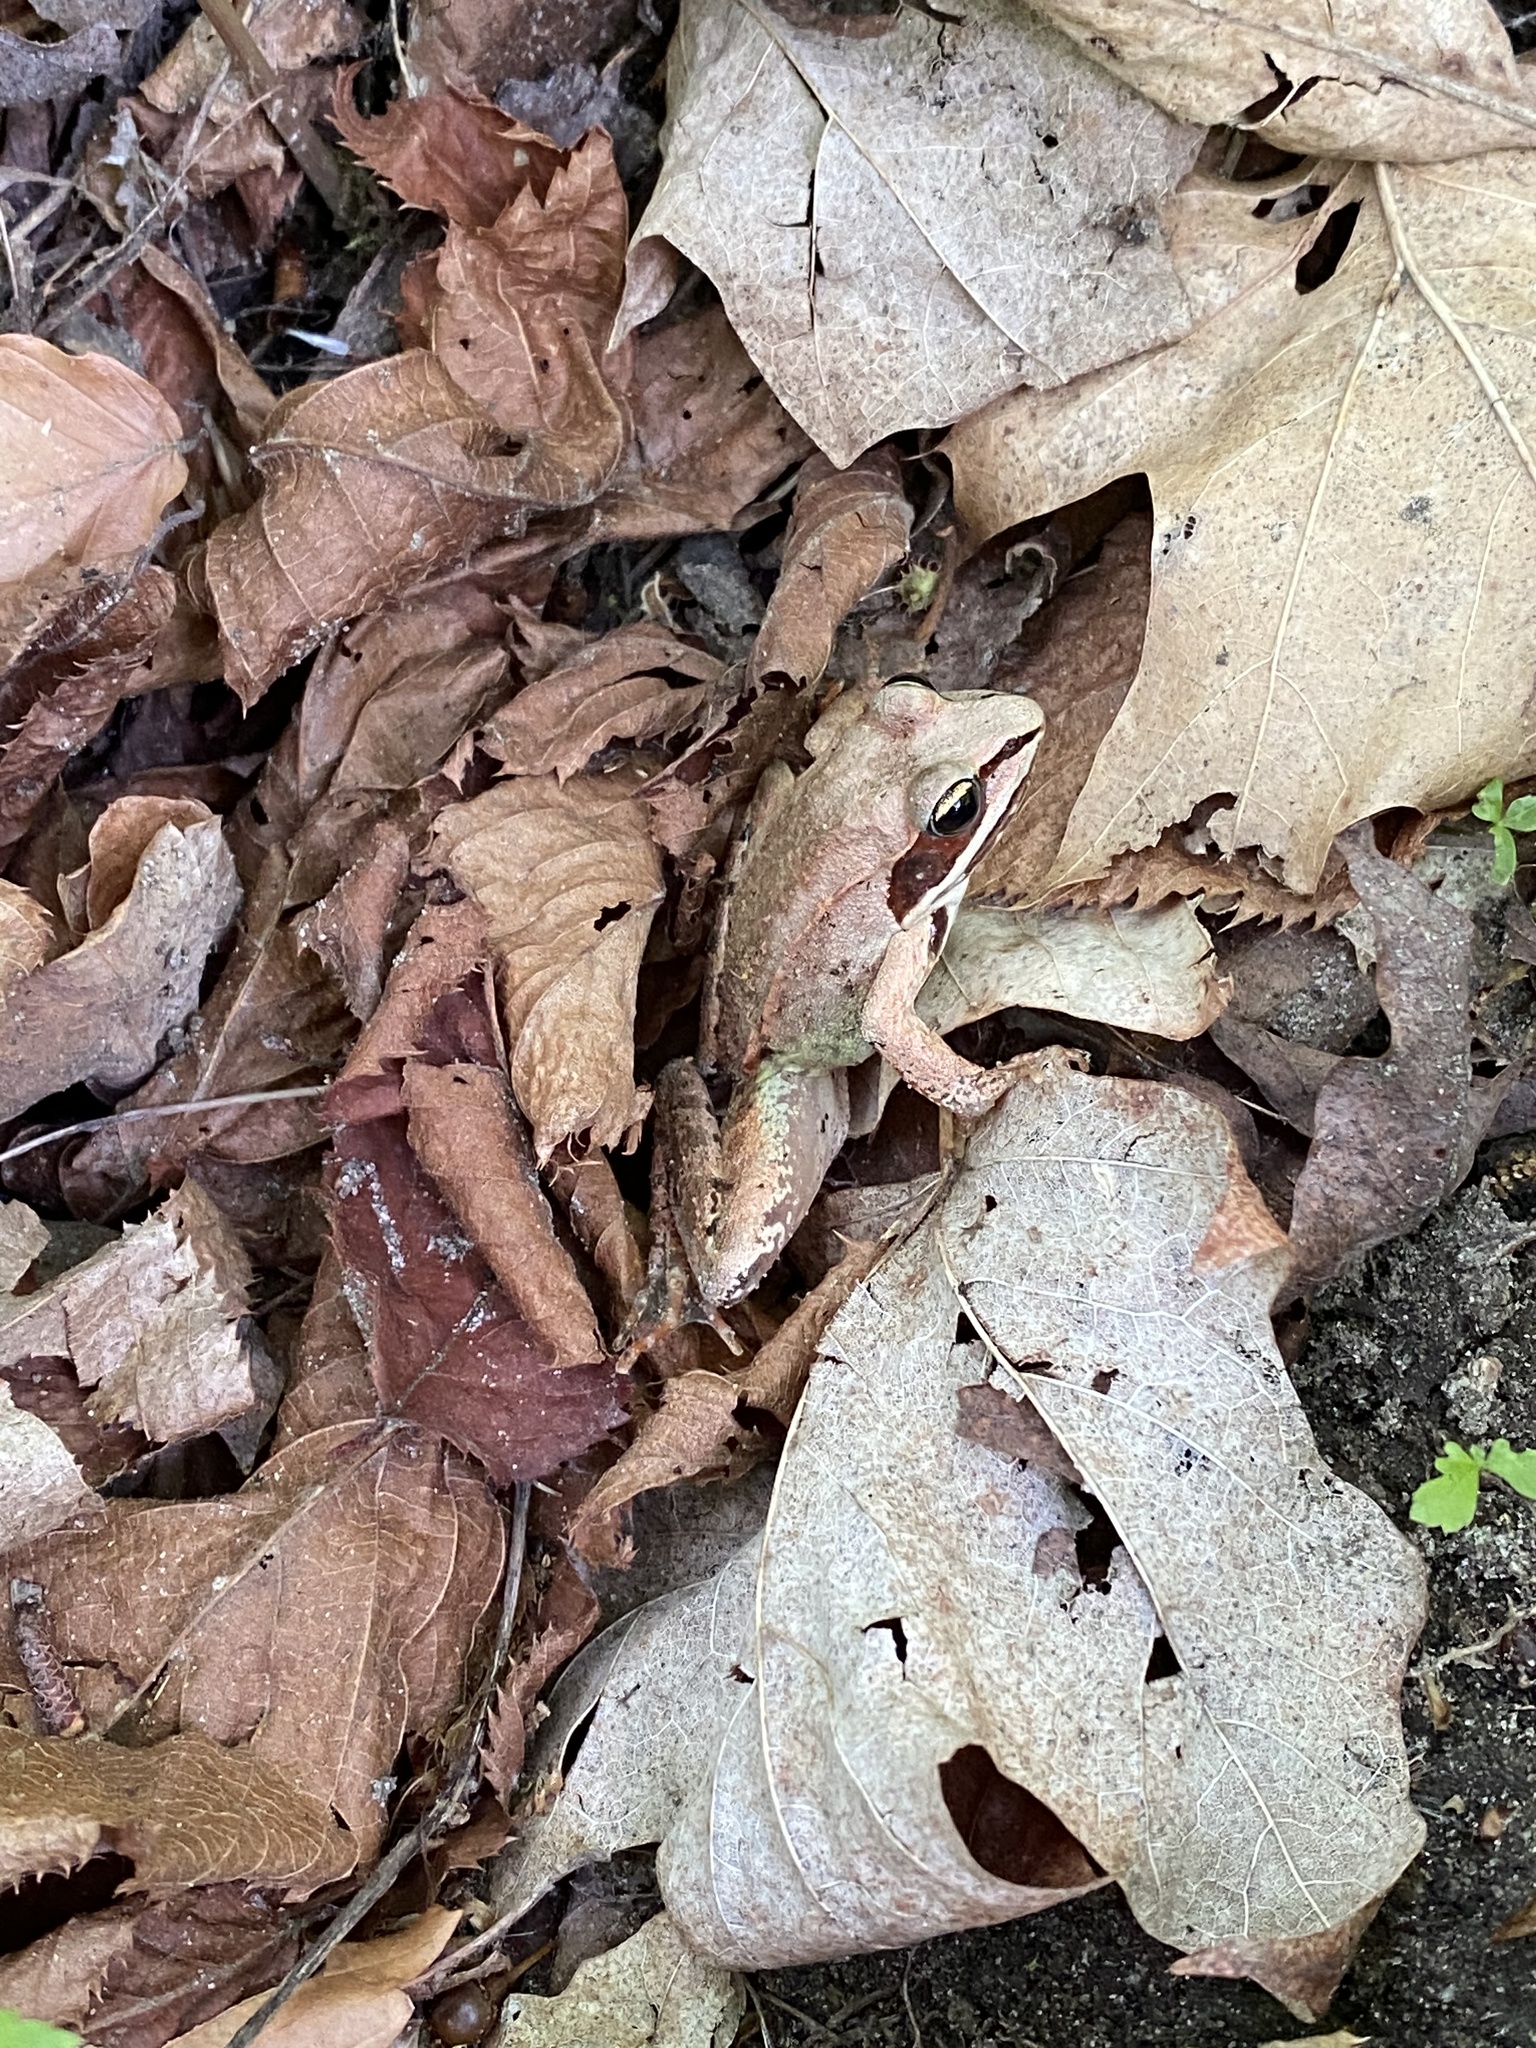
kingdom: Animalia
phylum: Chordata
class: Amphibia
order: Anura
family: Ranidae
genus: Lithobates
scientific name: Lithobates sylvaticus
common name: Wood frog
